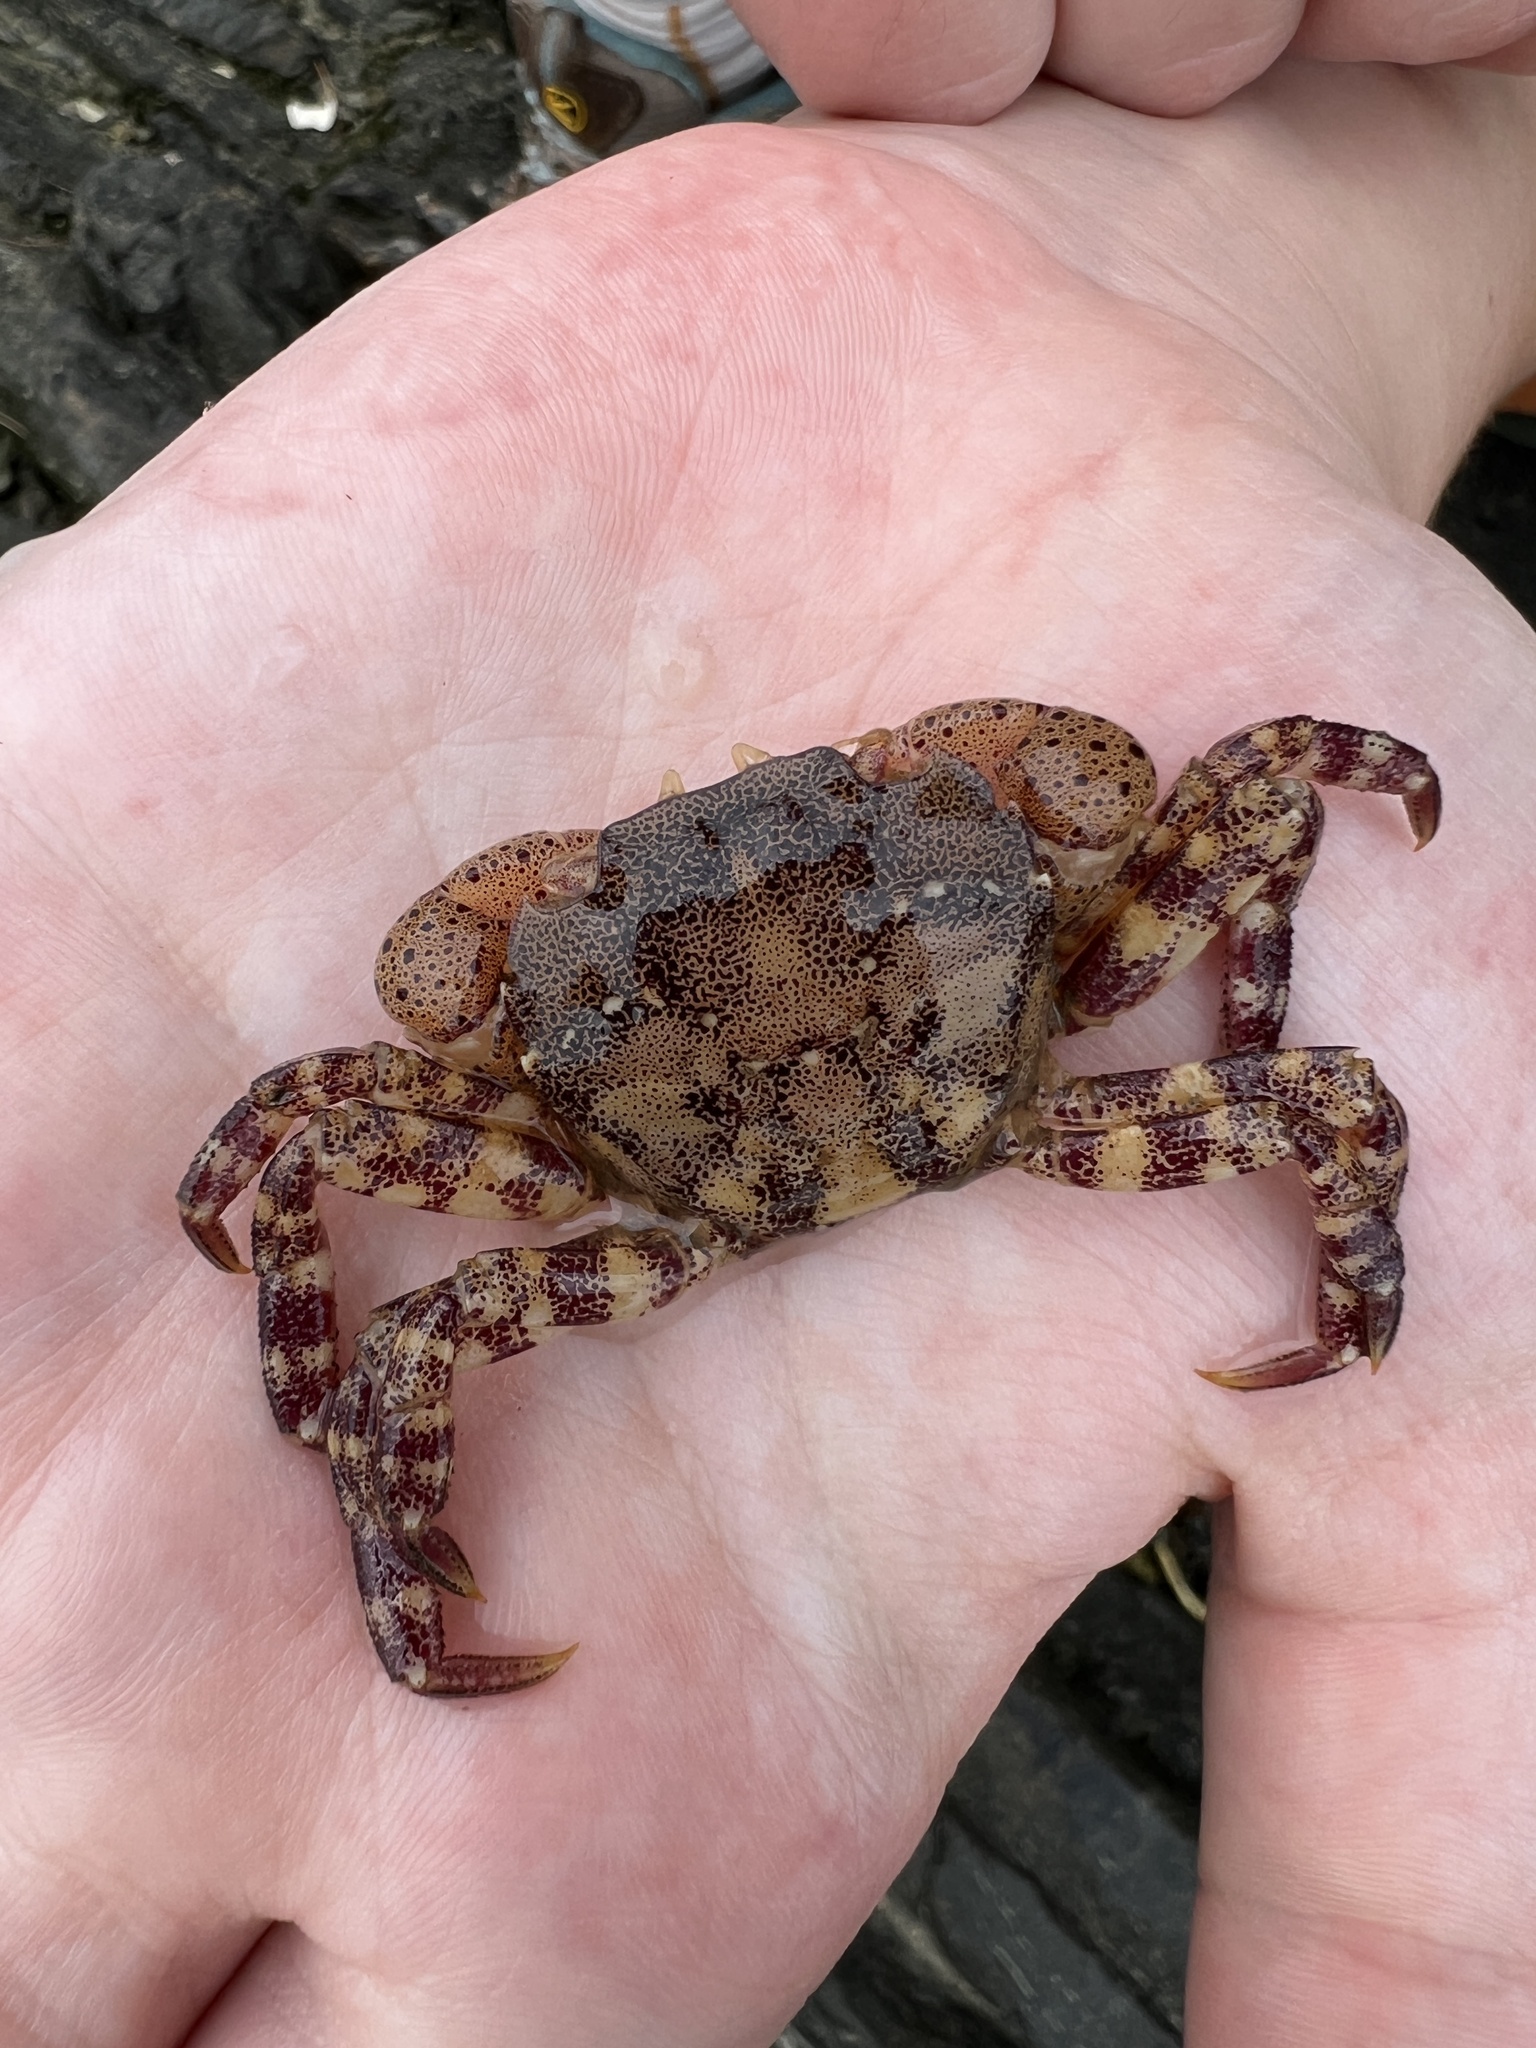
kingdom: Animalia
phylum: Arthropoda
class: Malacostraca
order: Decapoda
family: Varunidae
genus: Hemigrapsus
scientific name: Hemigrapsus sanguineus
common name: Asian shore crab
